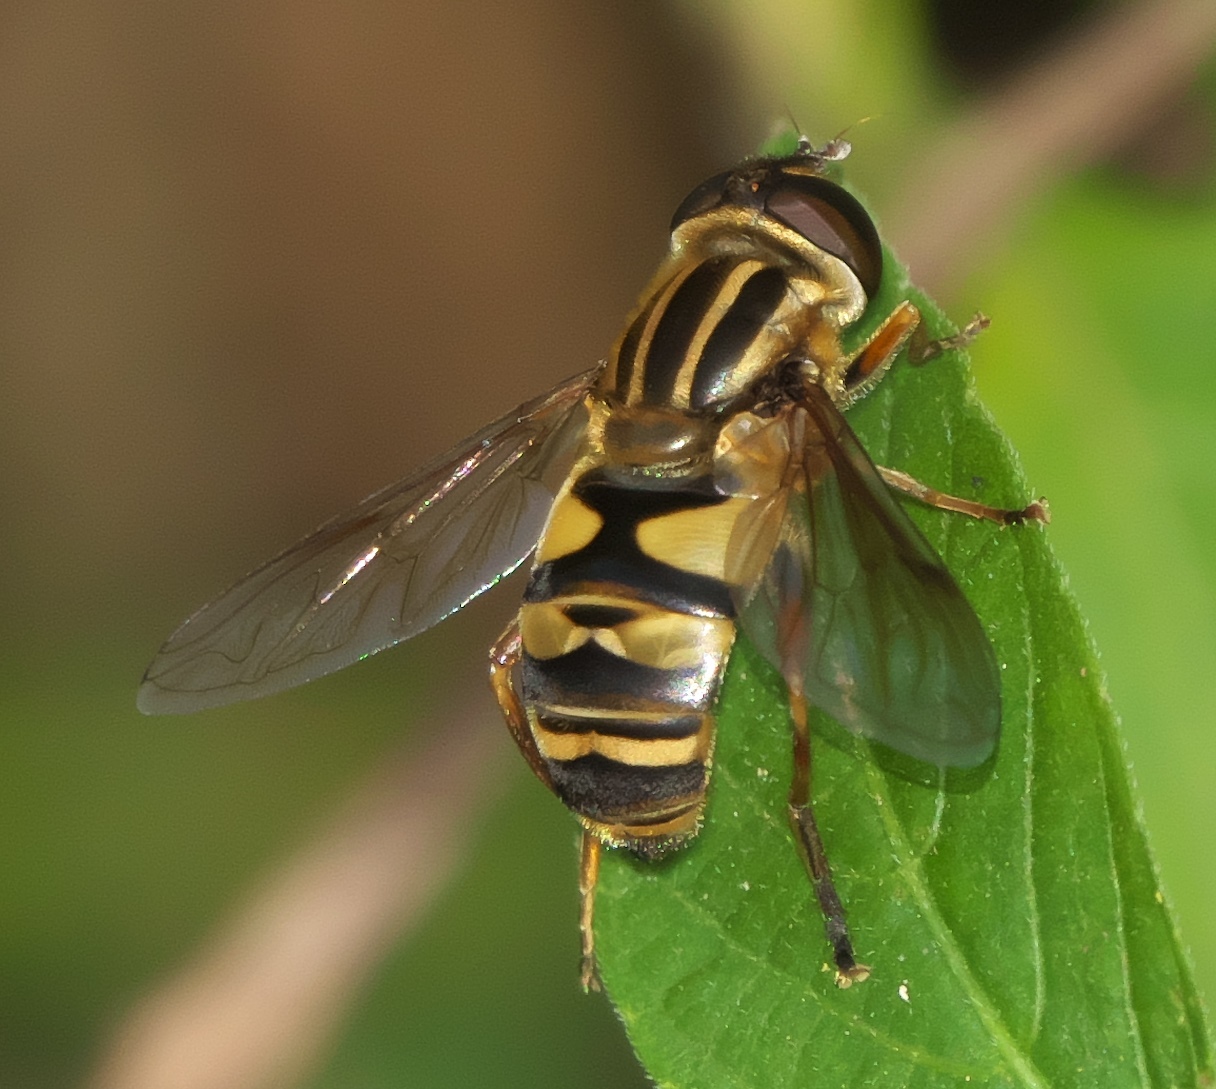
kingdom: Animalia
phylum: Arthropoda
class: Insecta
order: Diptera
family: Syrphidae
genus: Helophilus
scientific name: Helophilus fasciatus
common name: Narrow-headed marsh fly
